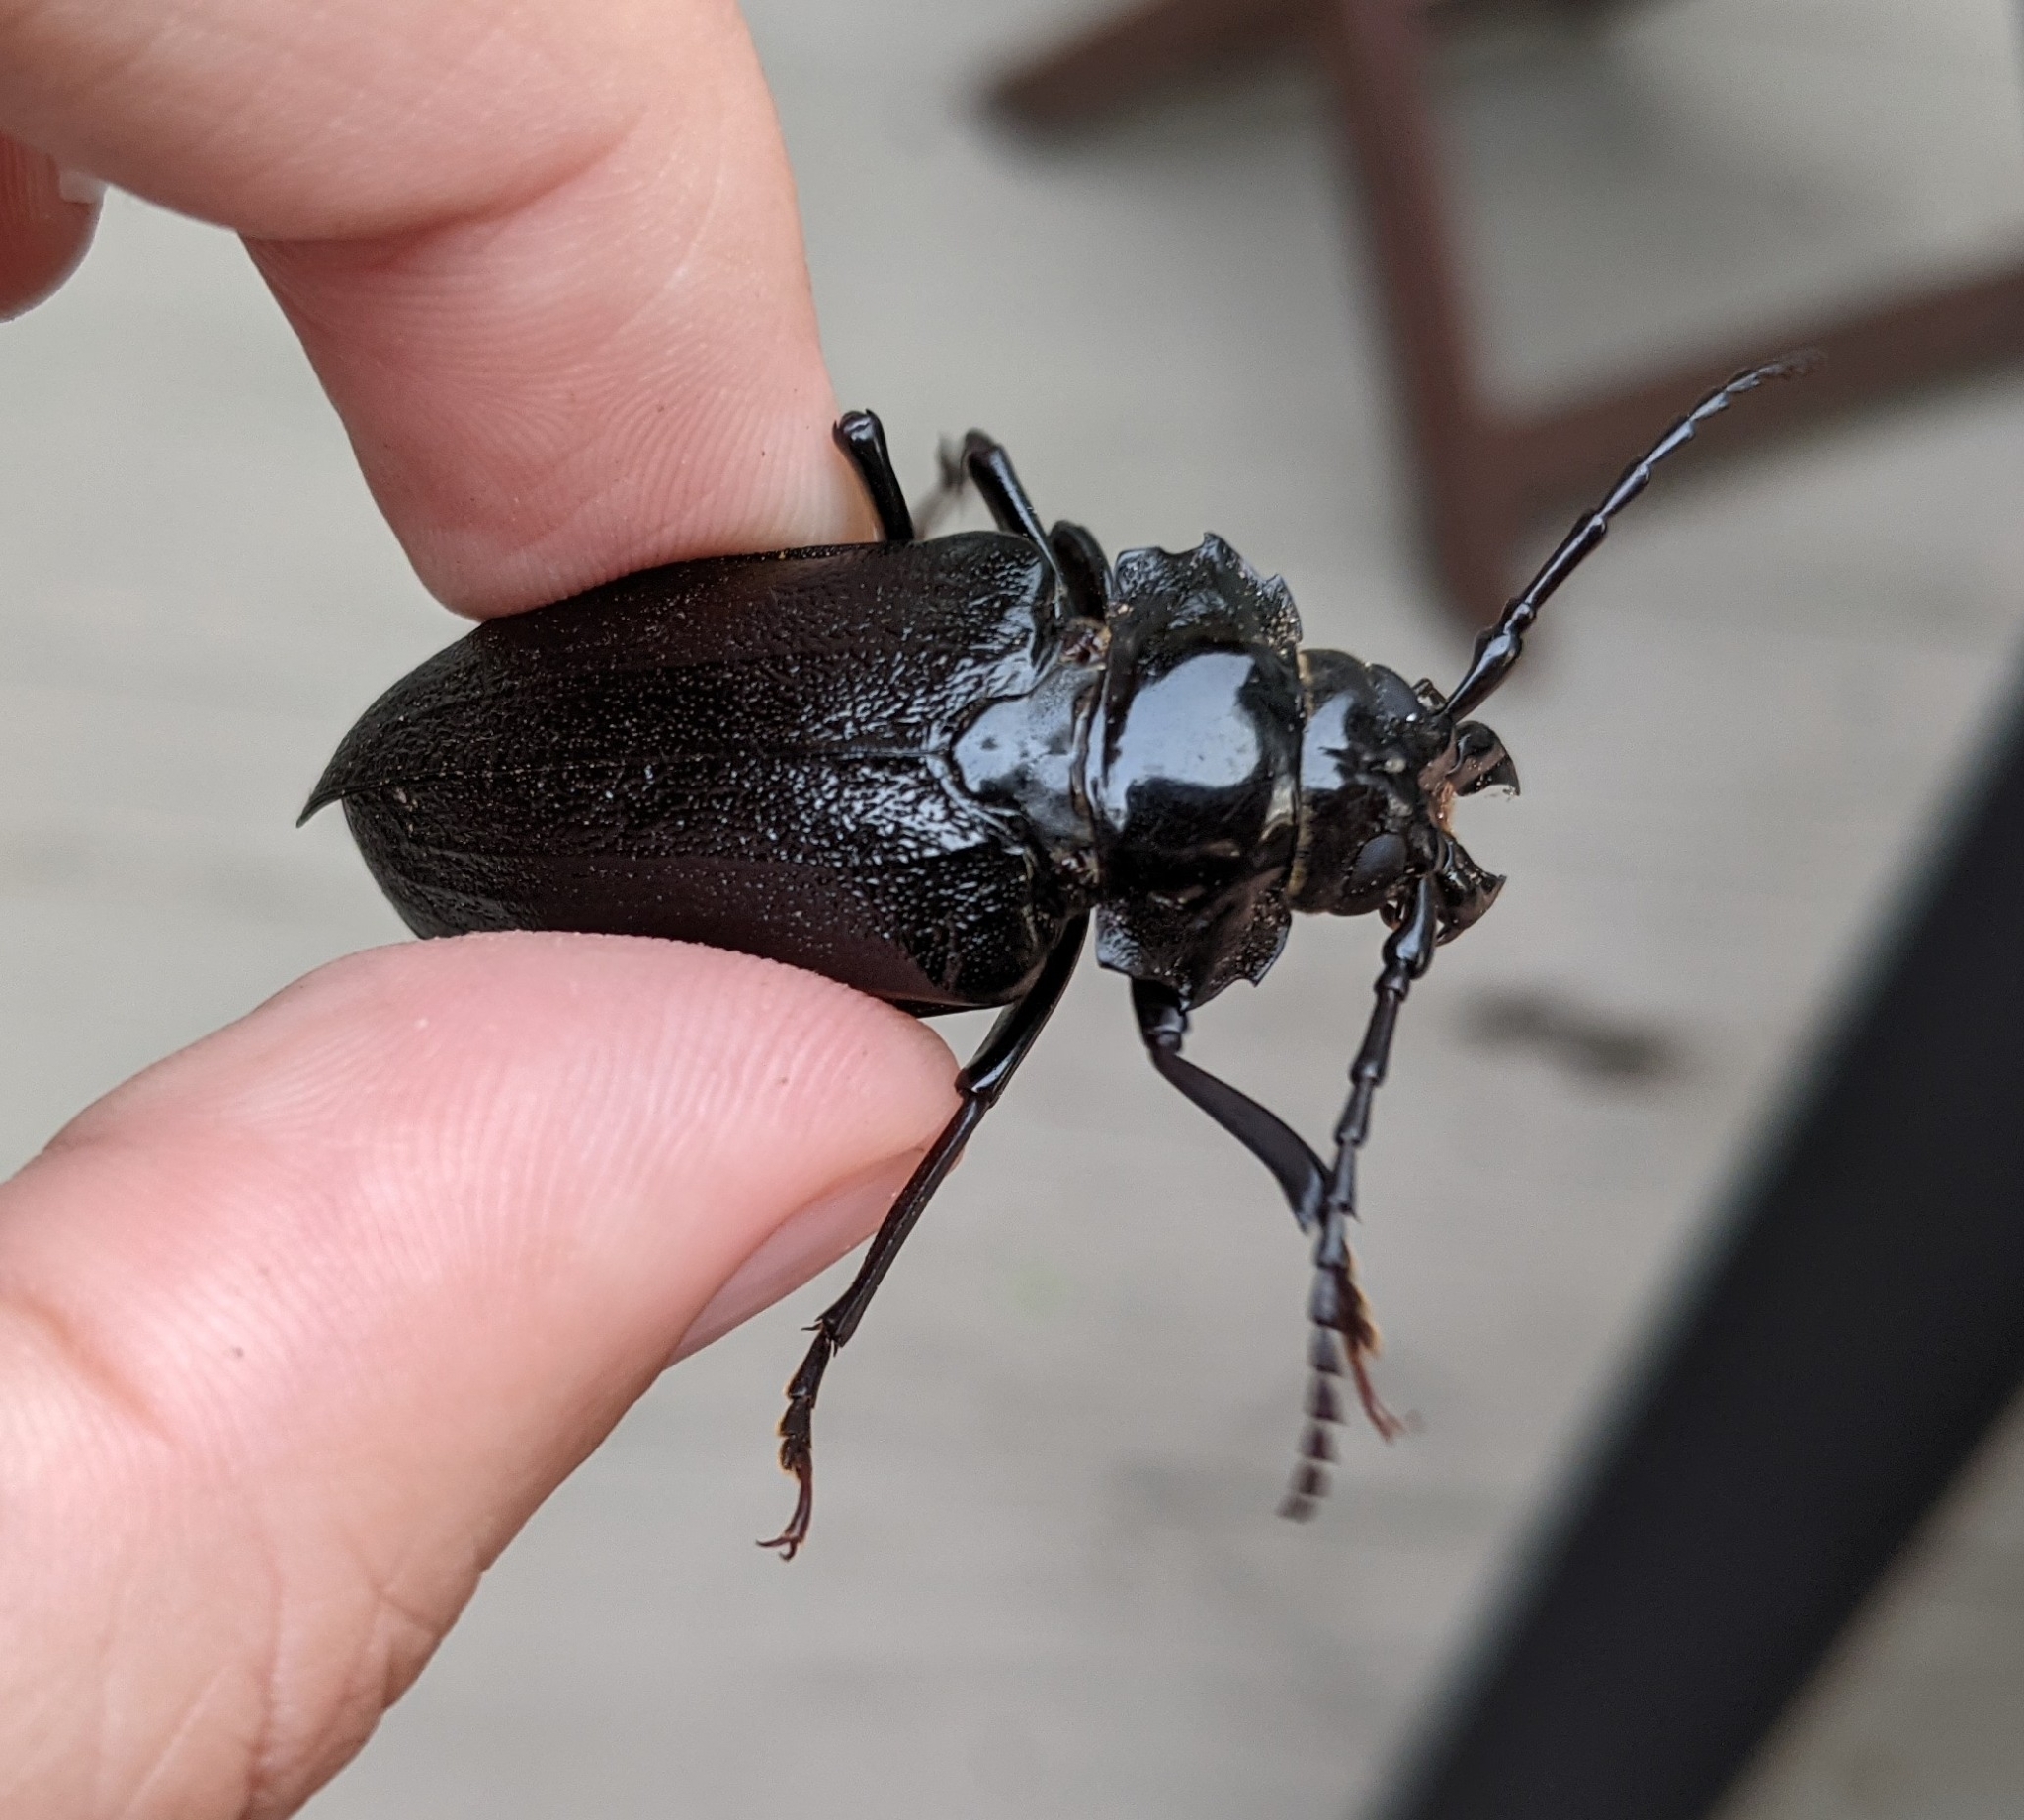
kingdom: Animalia
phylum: Arthropoda
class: Insecta
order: Coleoptera
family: Cerambycidae
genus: Prionus
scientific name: Prionus laticollis
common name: Broad necked prionus
